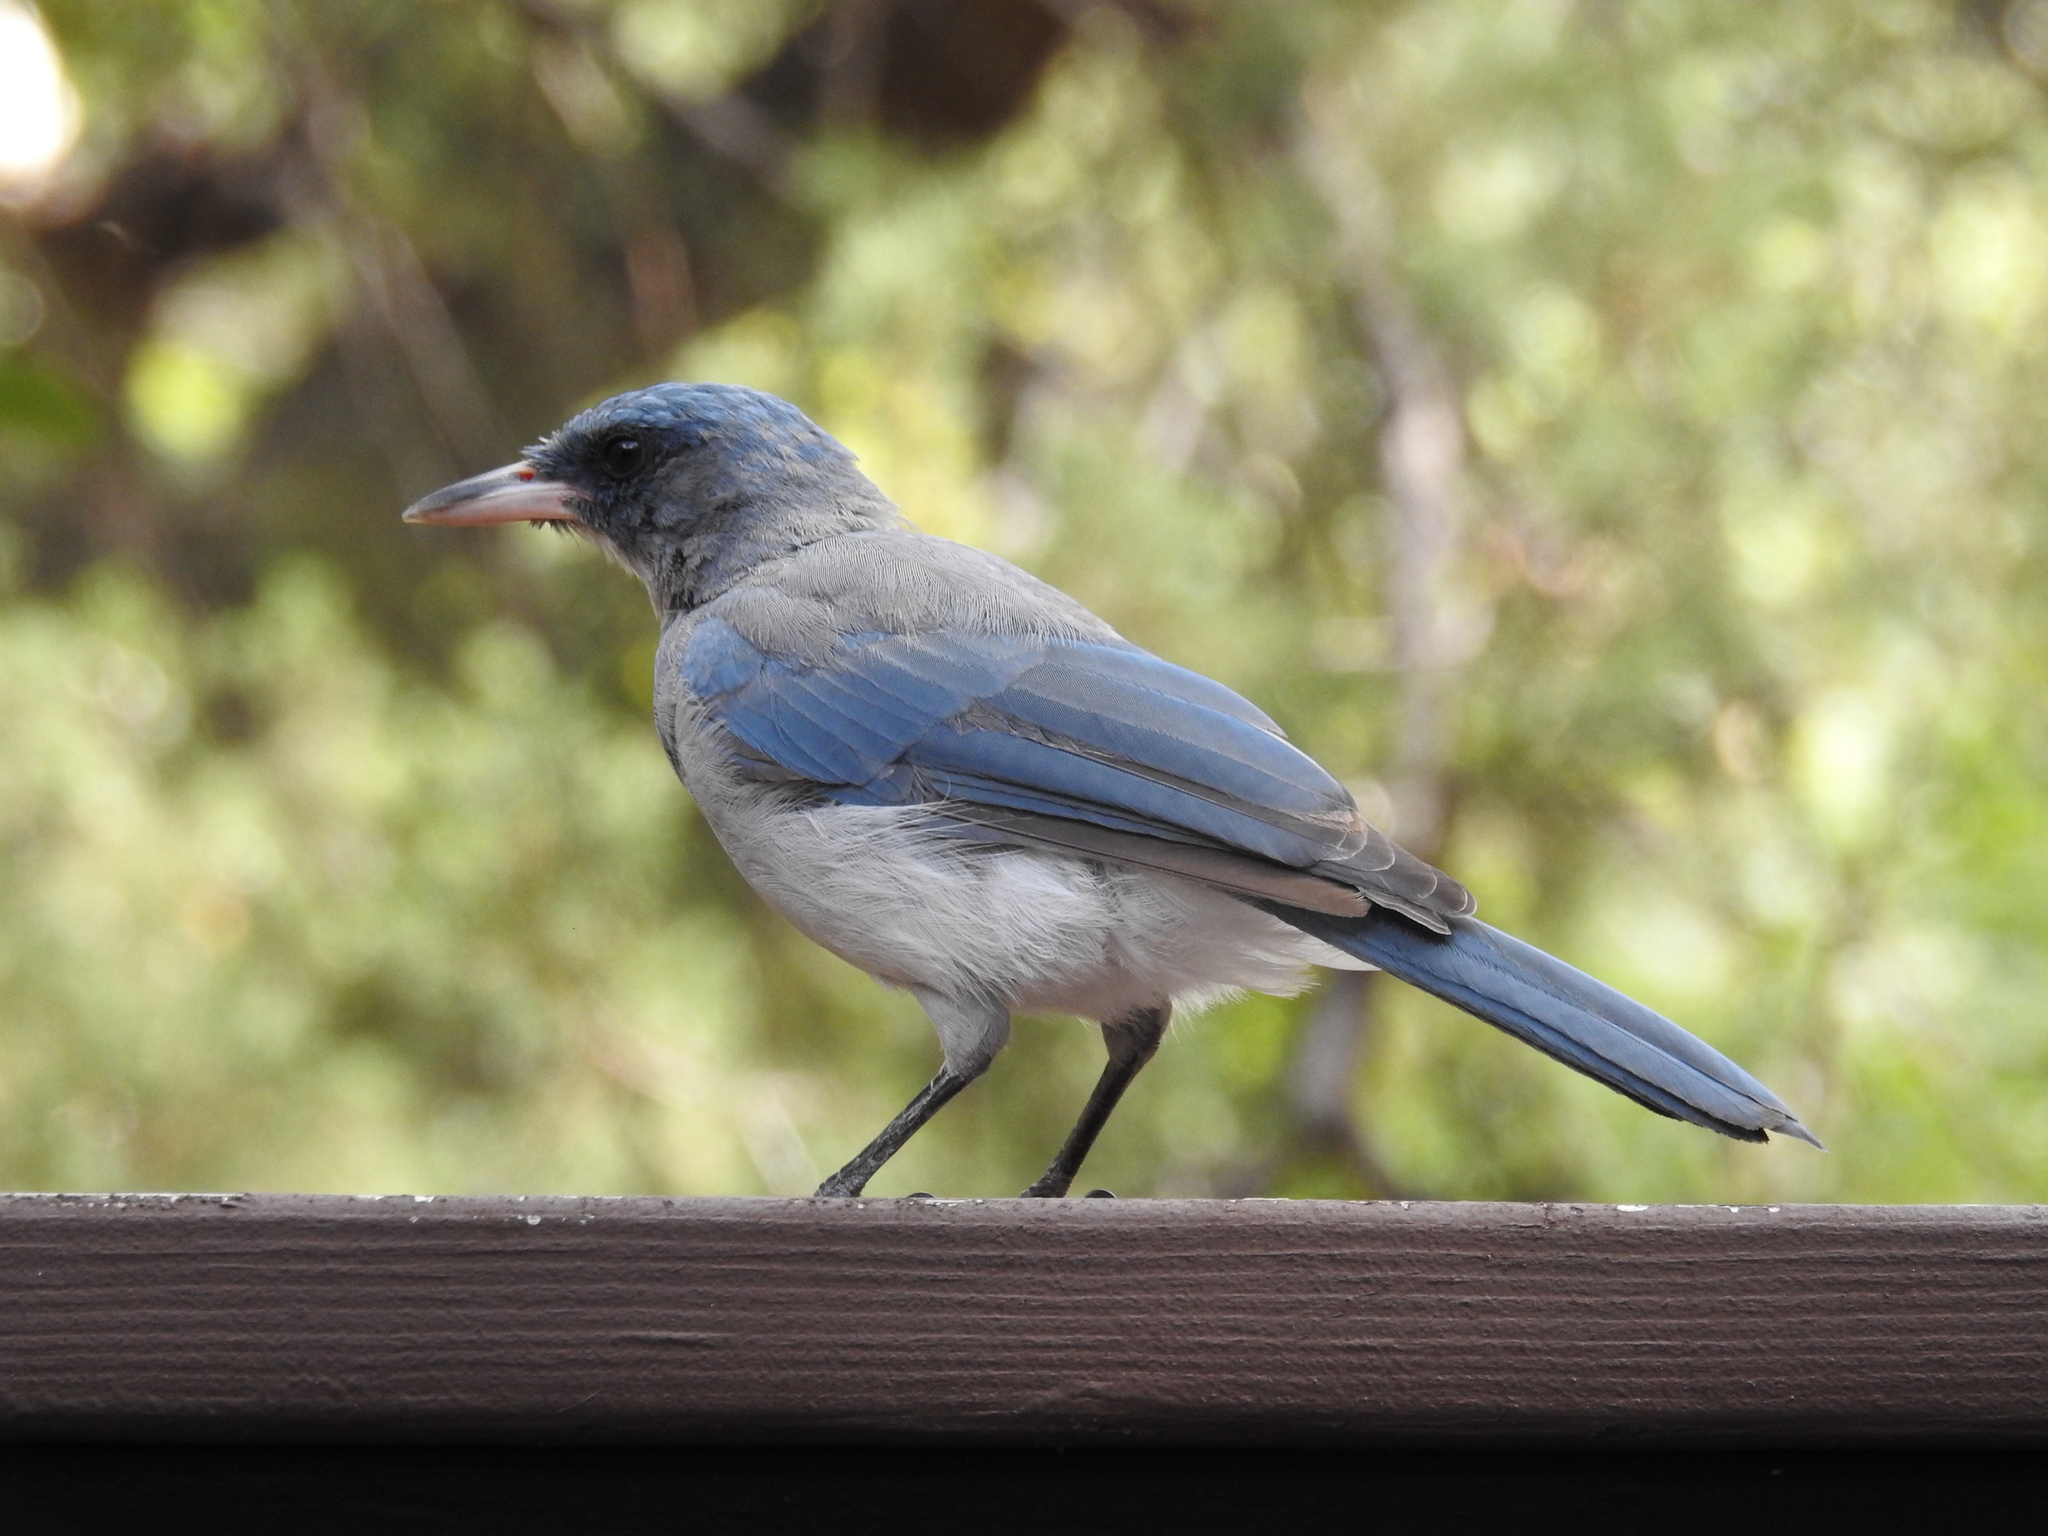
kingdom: Animalia
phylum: Chordata
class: Aves
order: Passeriformes
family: Corvidae
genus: Aphelocoma
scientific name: Aphelocoma wollweberi
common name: Mexican jay
